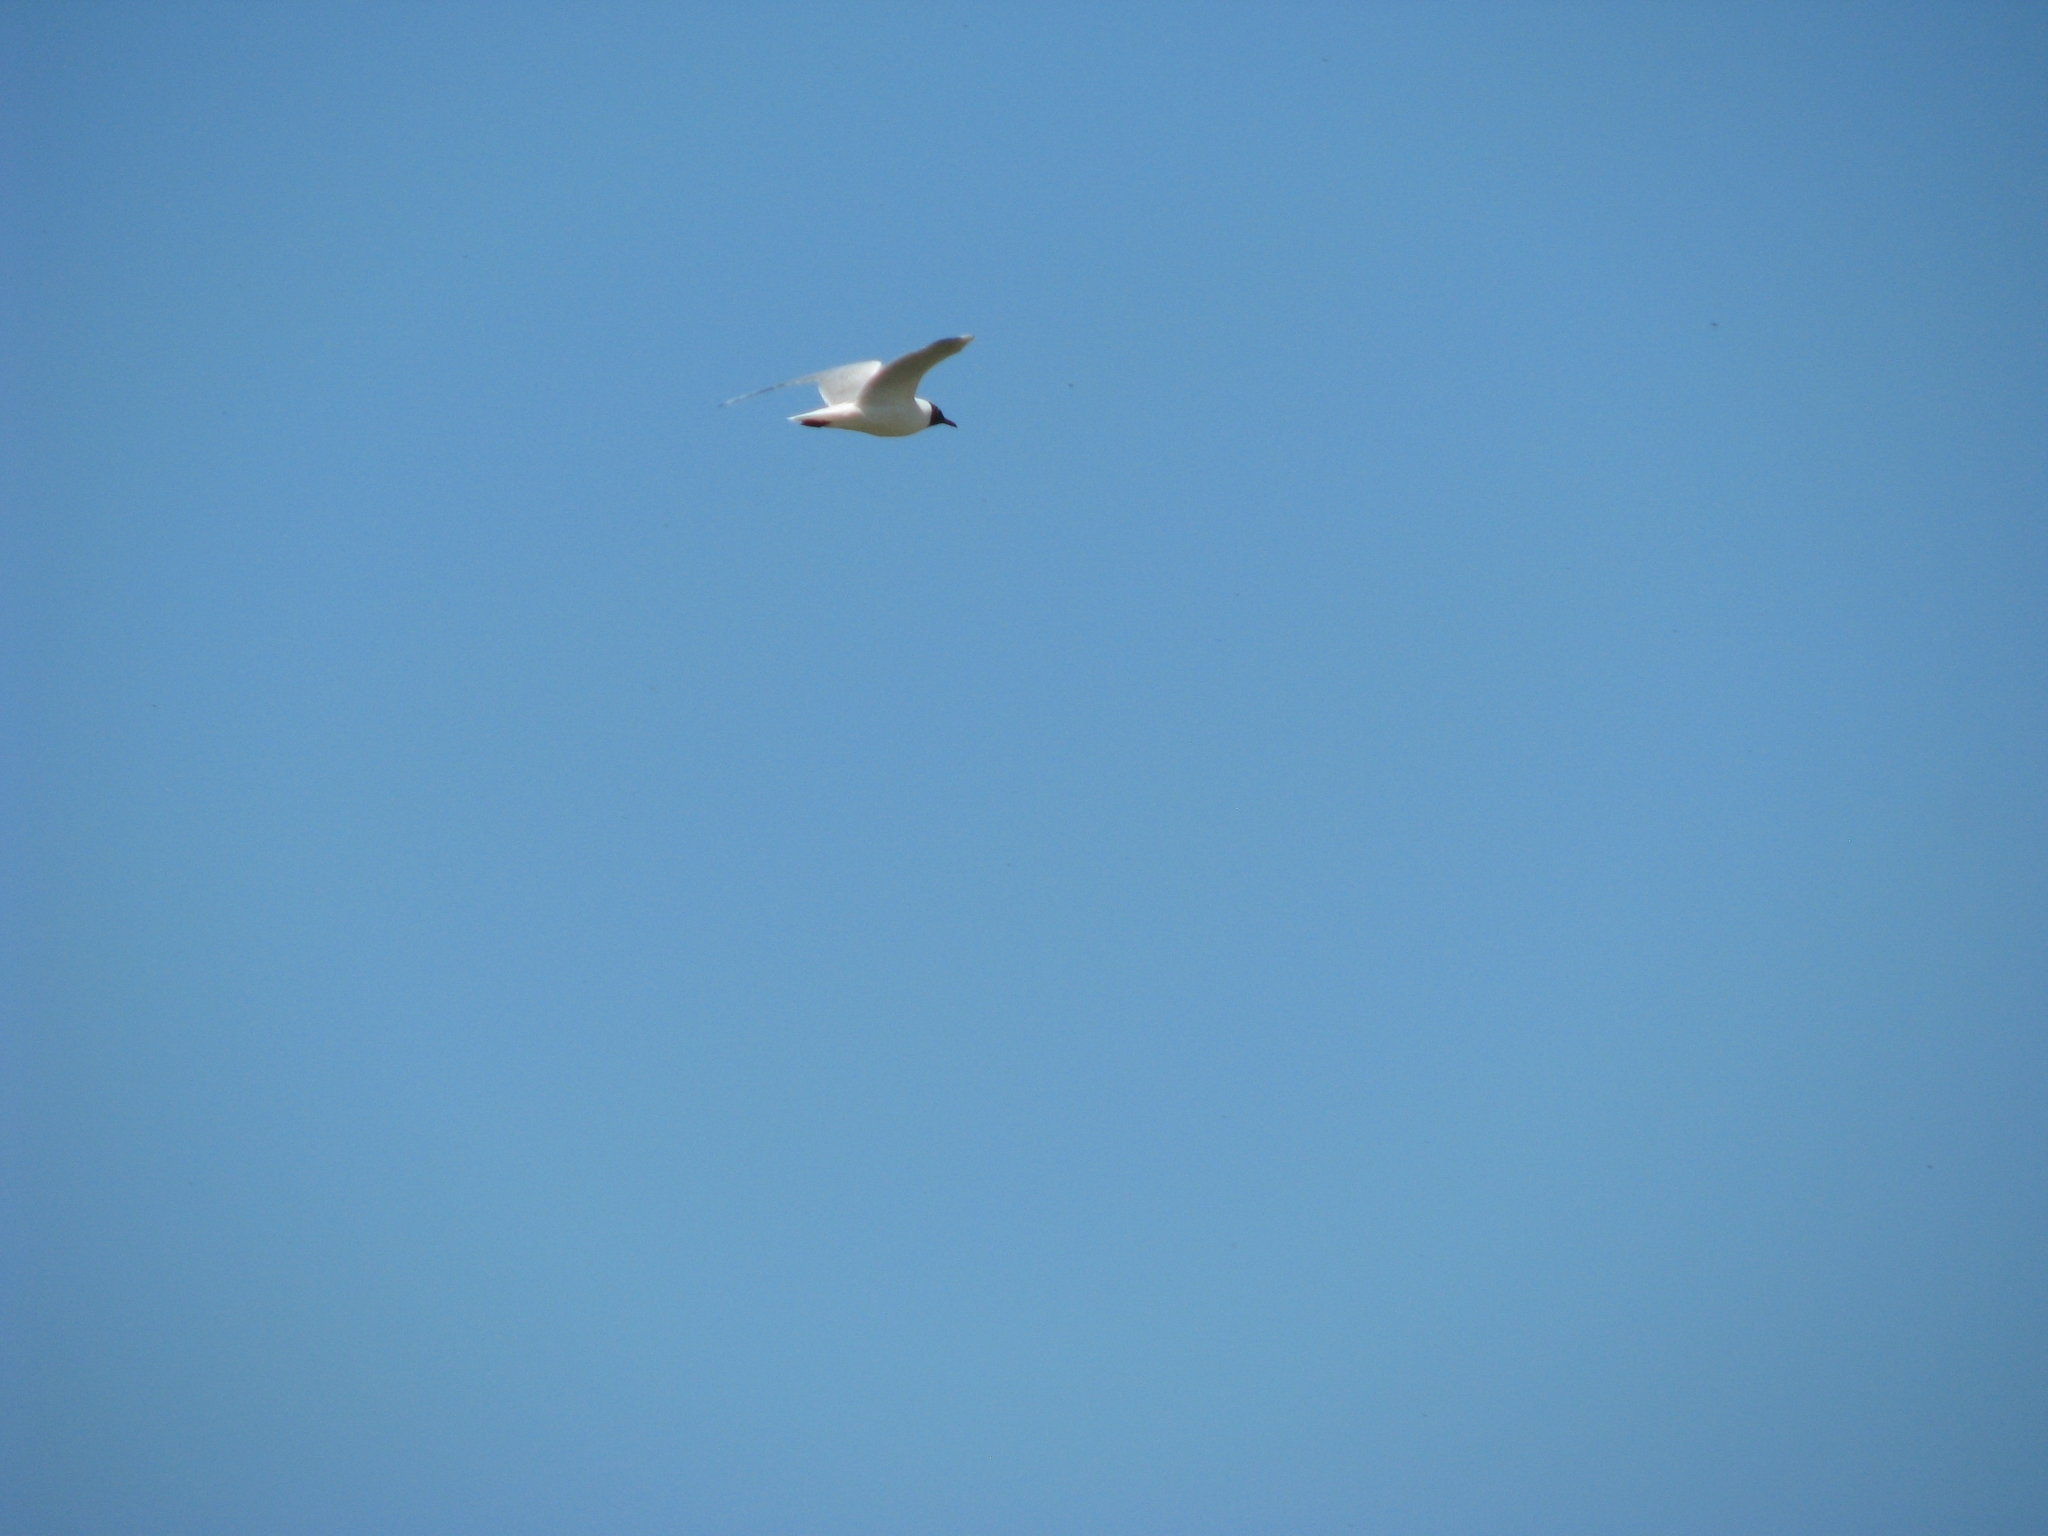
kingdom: Animalia
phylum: Chordata
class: Aves
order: Charadriiformes
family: Laridae
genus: Chroicocephalus
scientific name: Chroicocephalus ridibundus
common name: Black-headed gull
